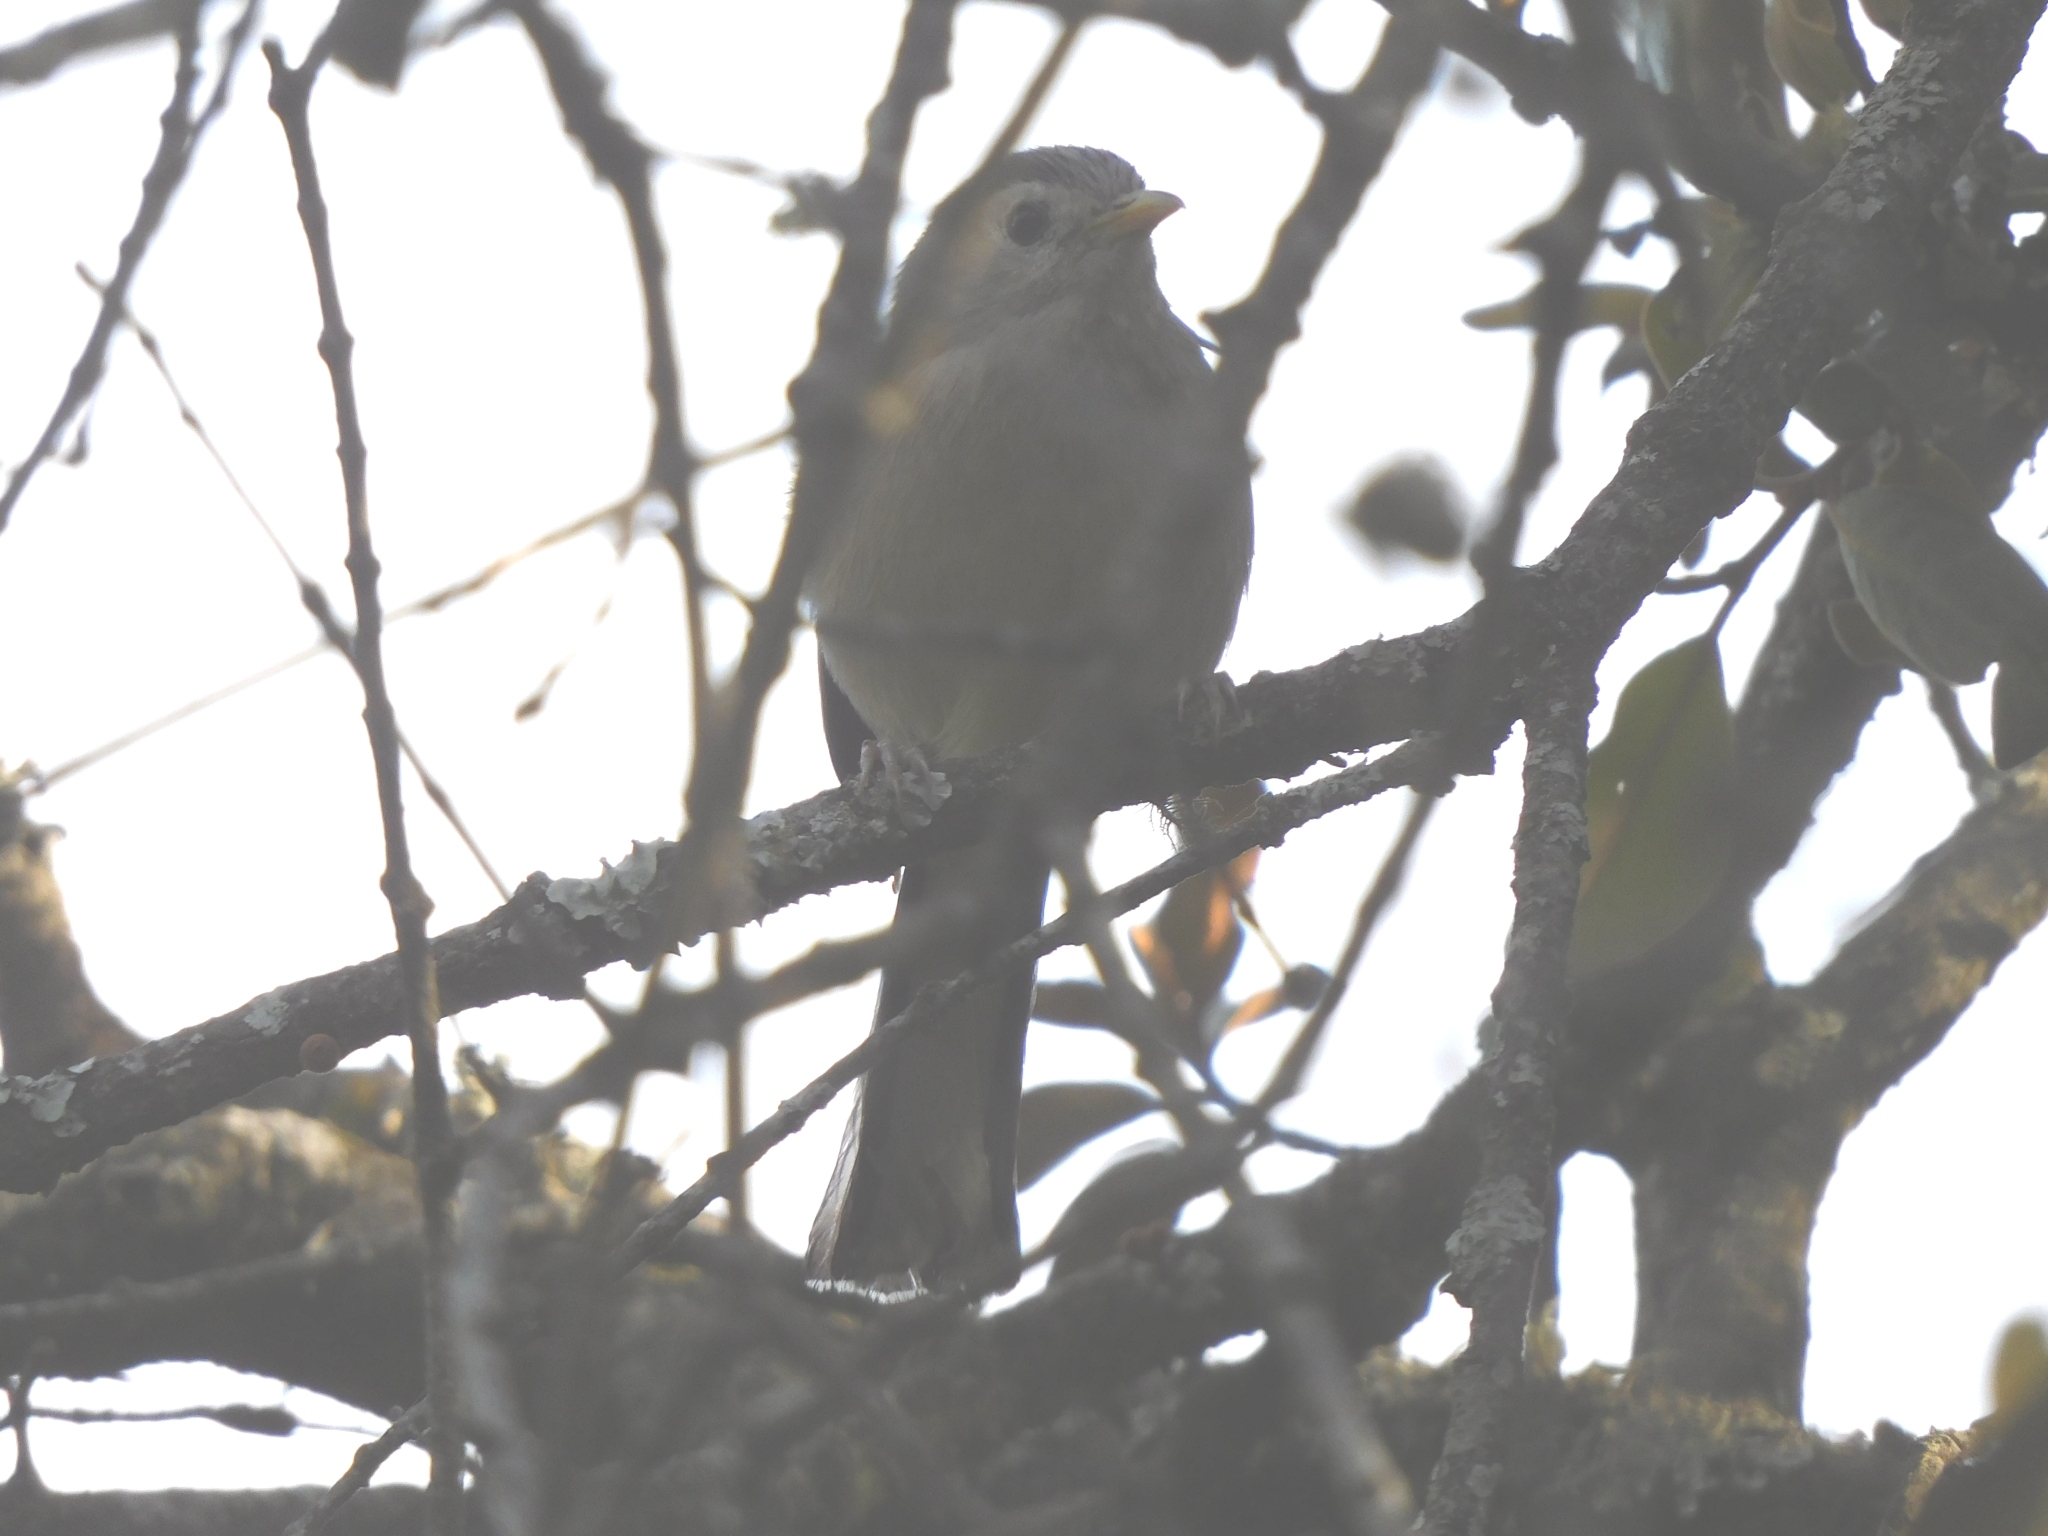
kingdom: Animalia
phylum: Chordata
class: Aves
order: Passeriformes
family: Leiothrichidae
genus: Minla
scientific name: Minla cyanouroptera
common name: Blue-winged minla
